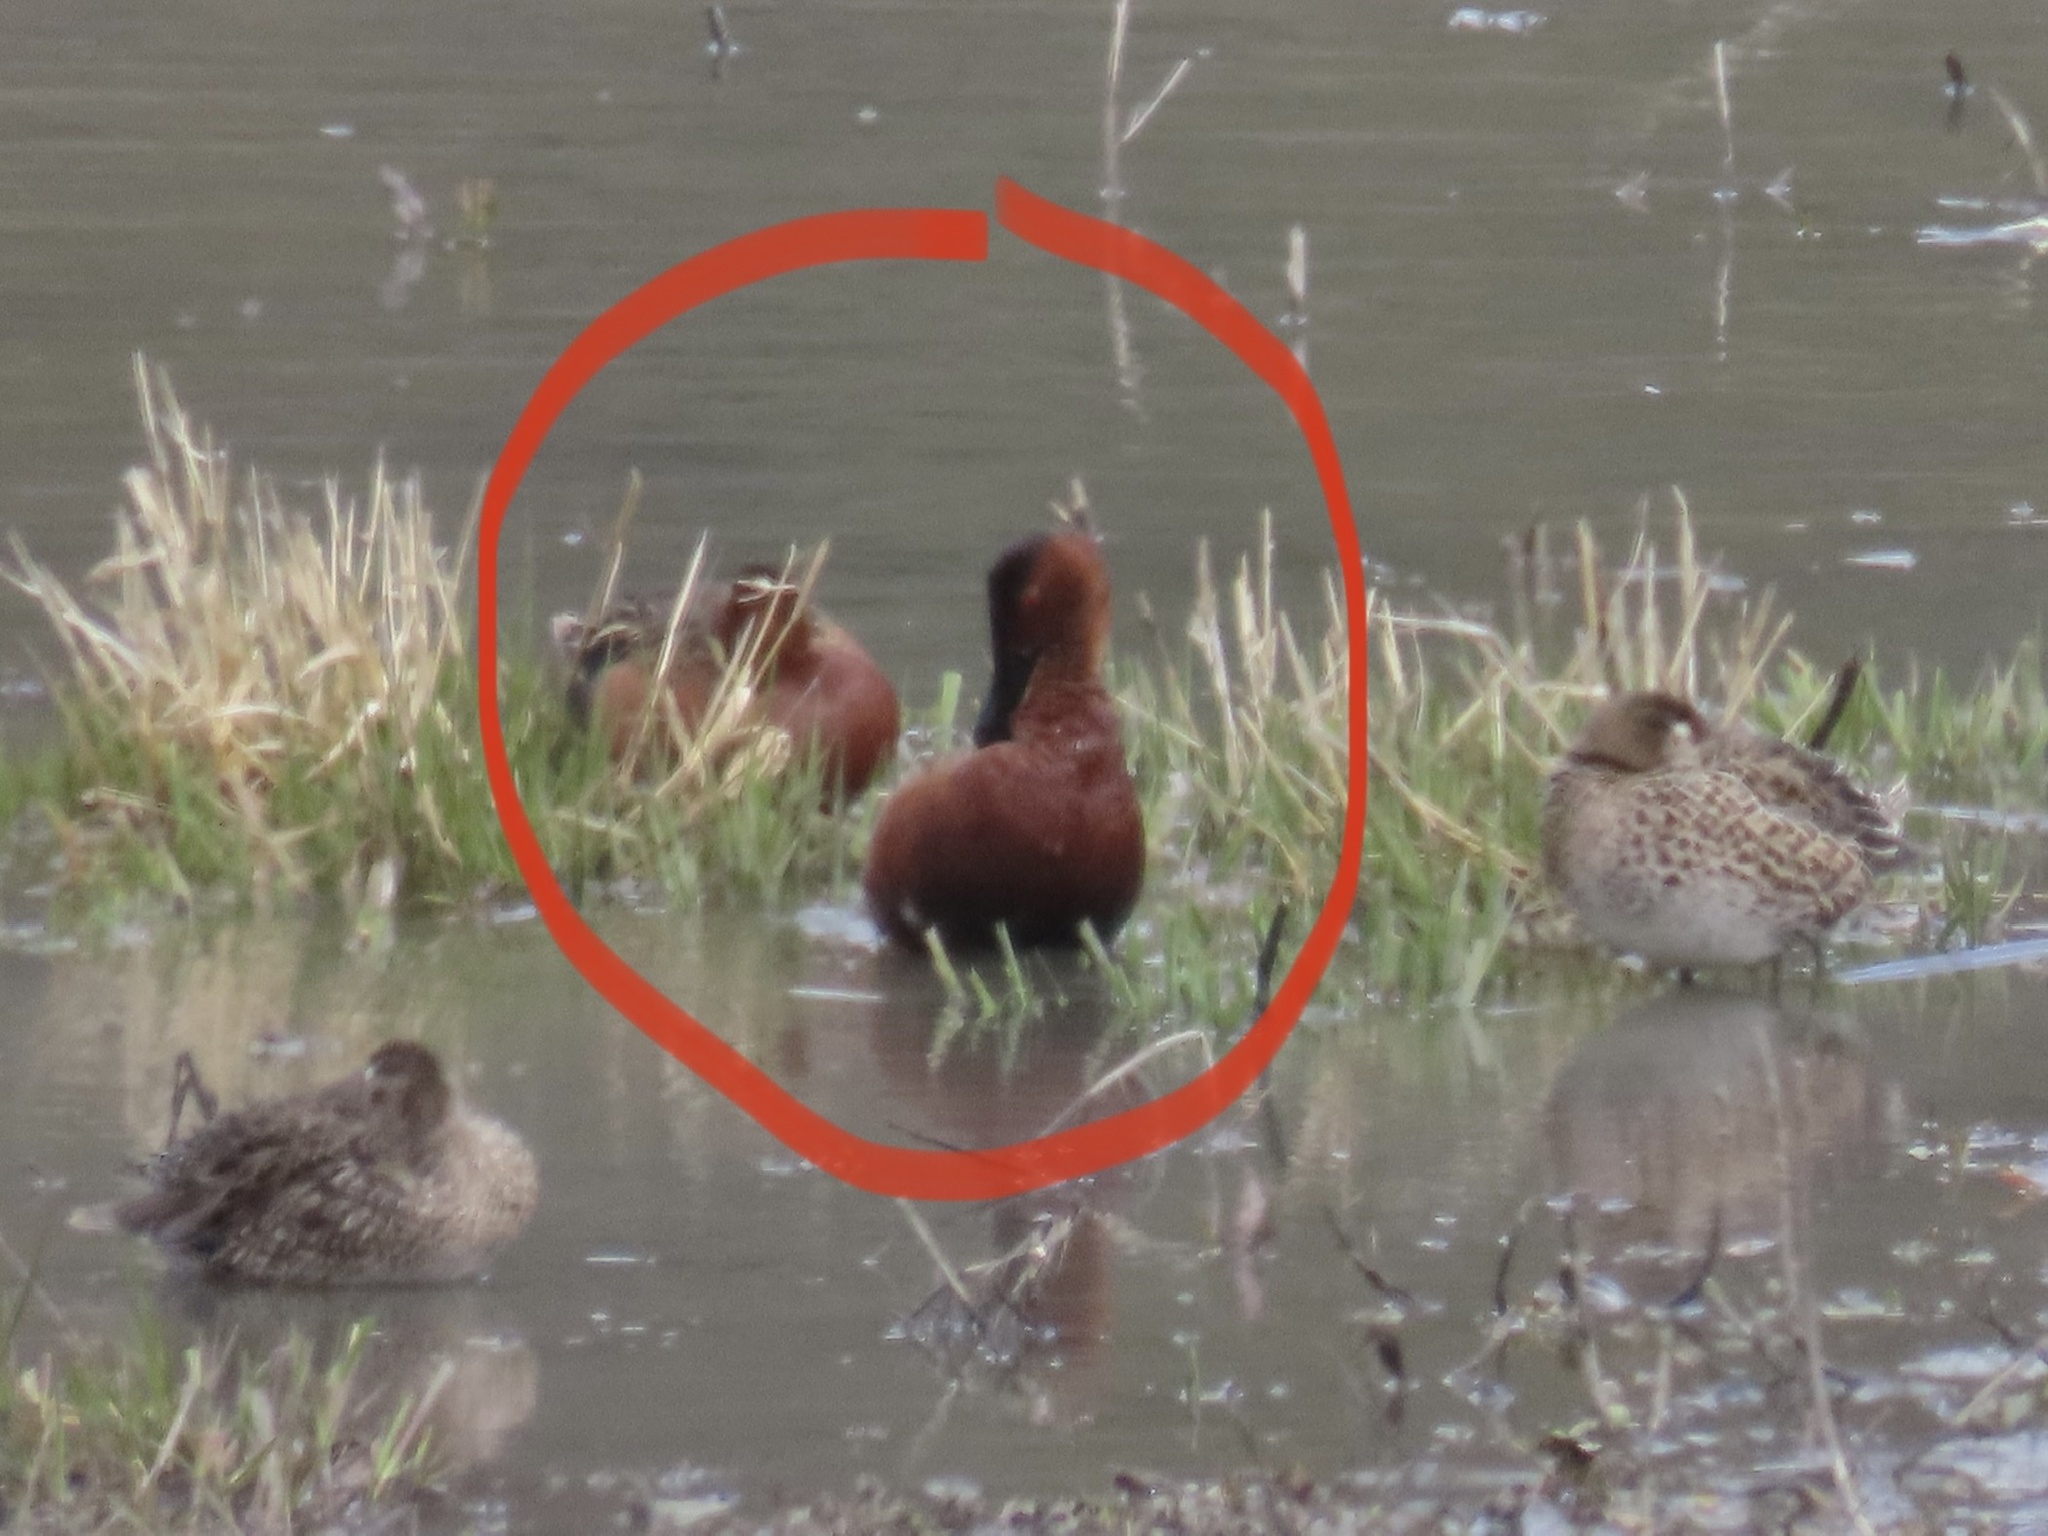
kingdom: Animalia
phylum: Chordata
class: Aves
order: Anseriformes
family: Anatidae
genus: Spatula
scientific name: Spatula cyanoptera
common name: Cinnamon teal
